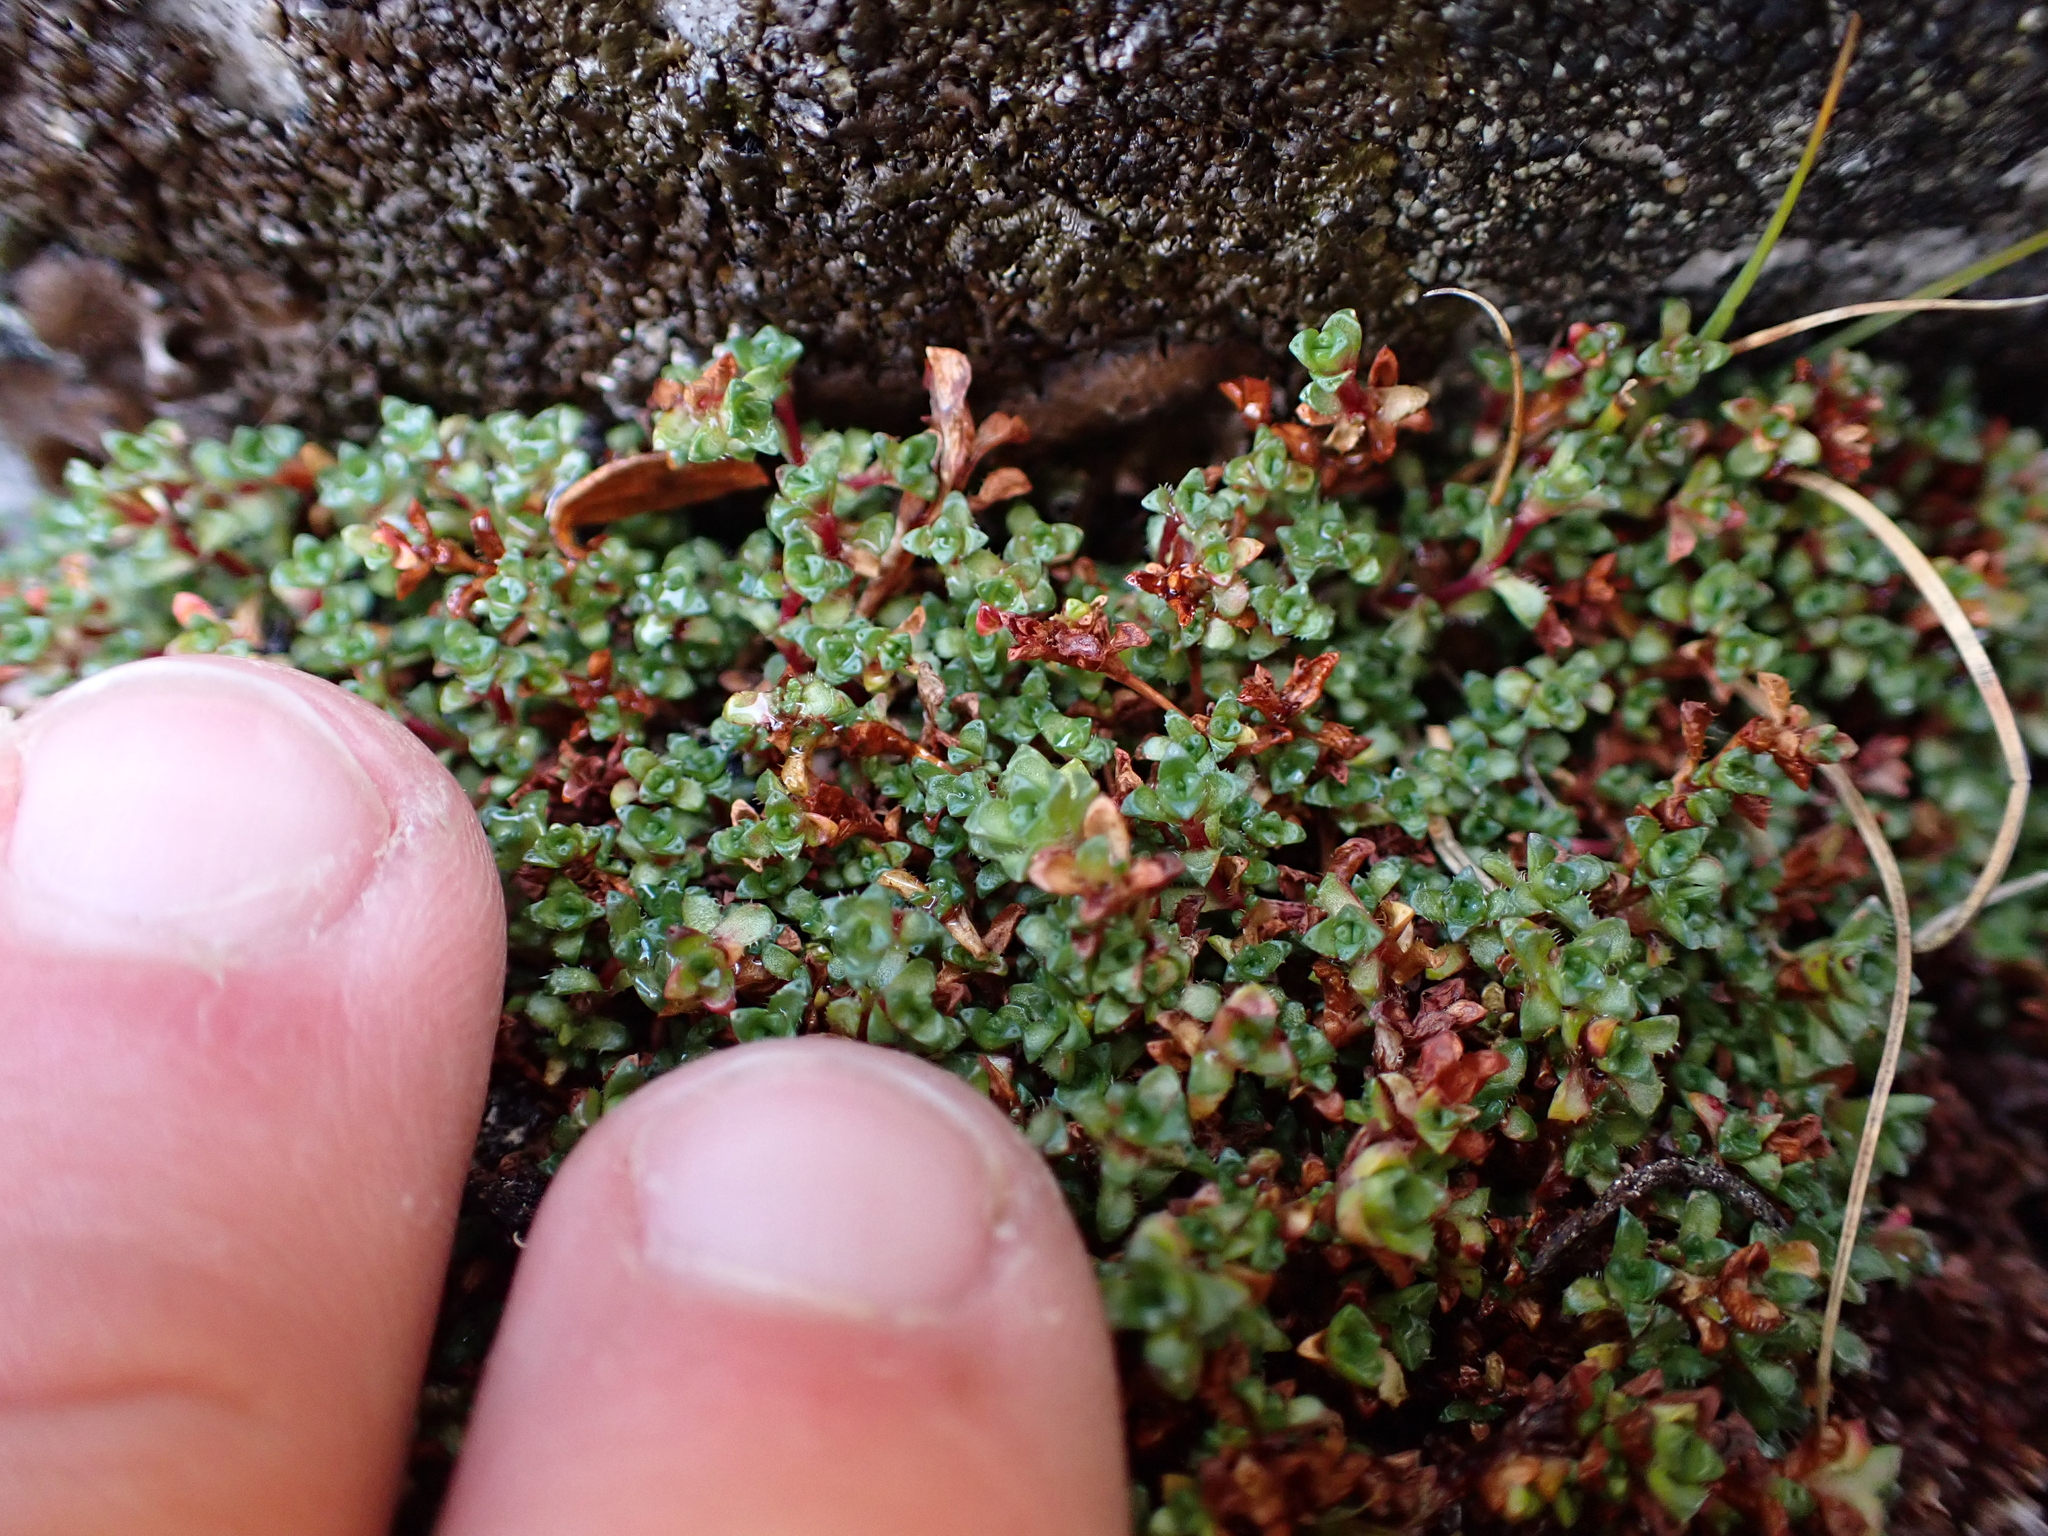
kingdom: Plantae
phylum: Tracheophyta
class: Magnoliopsida
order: Saxifragales
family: Saxifragaceae
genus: Saxifraga
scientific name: Saxifraga oppositifolia
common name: Purple saxifrage
